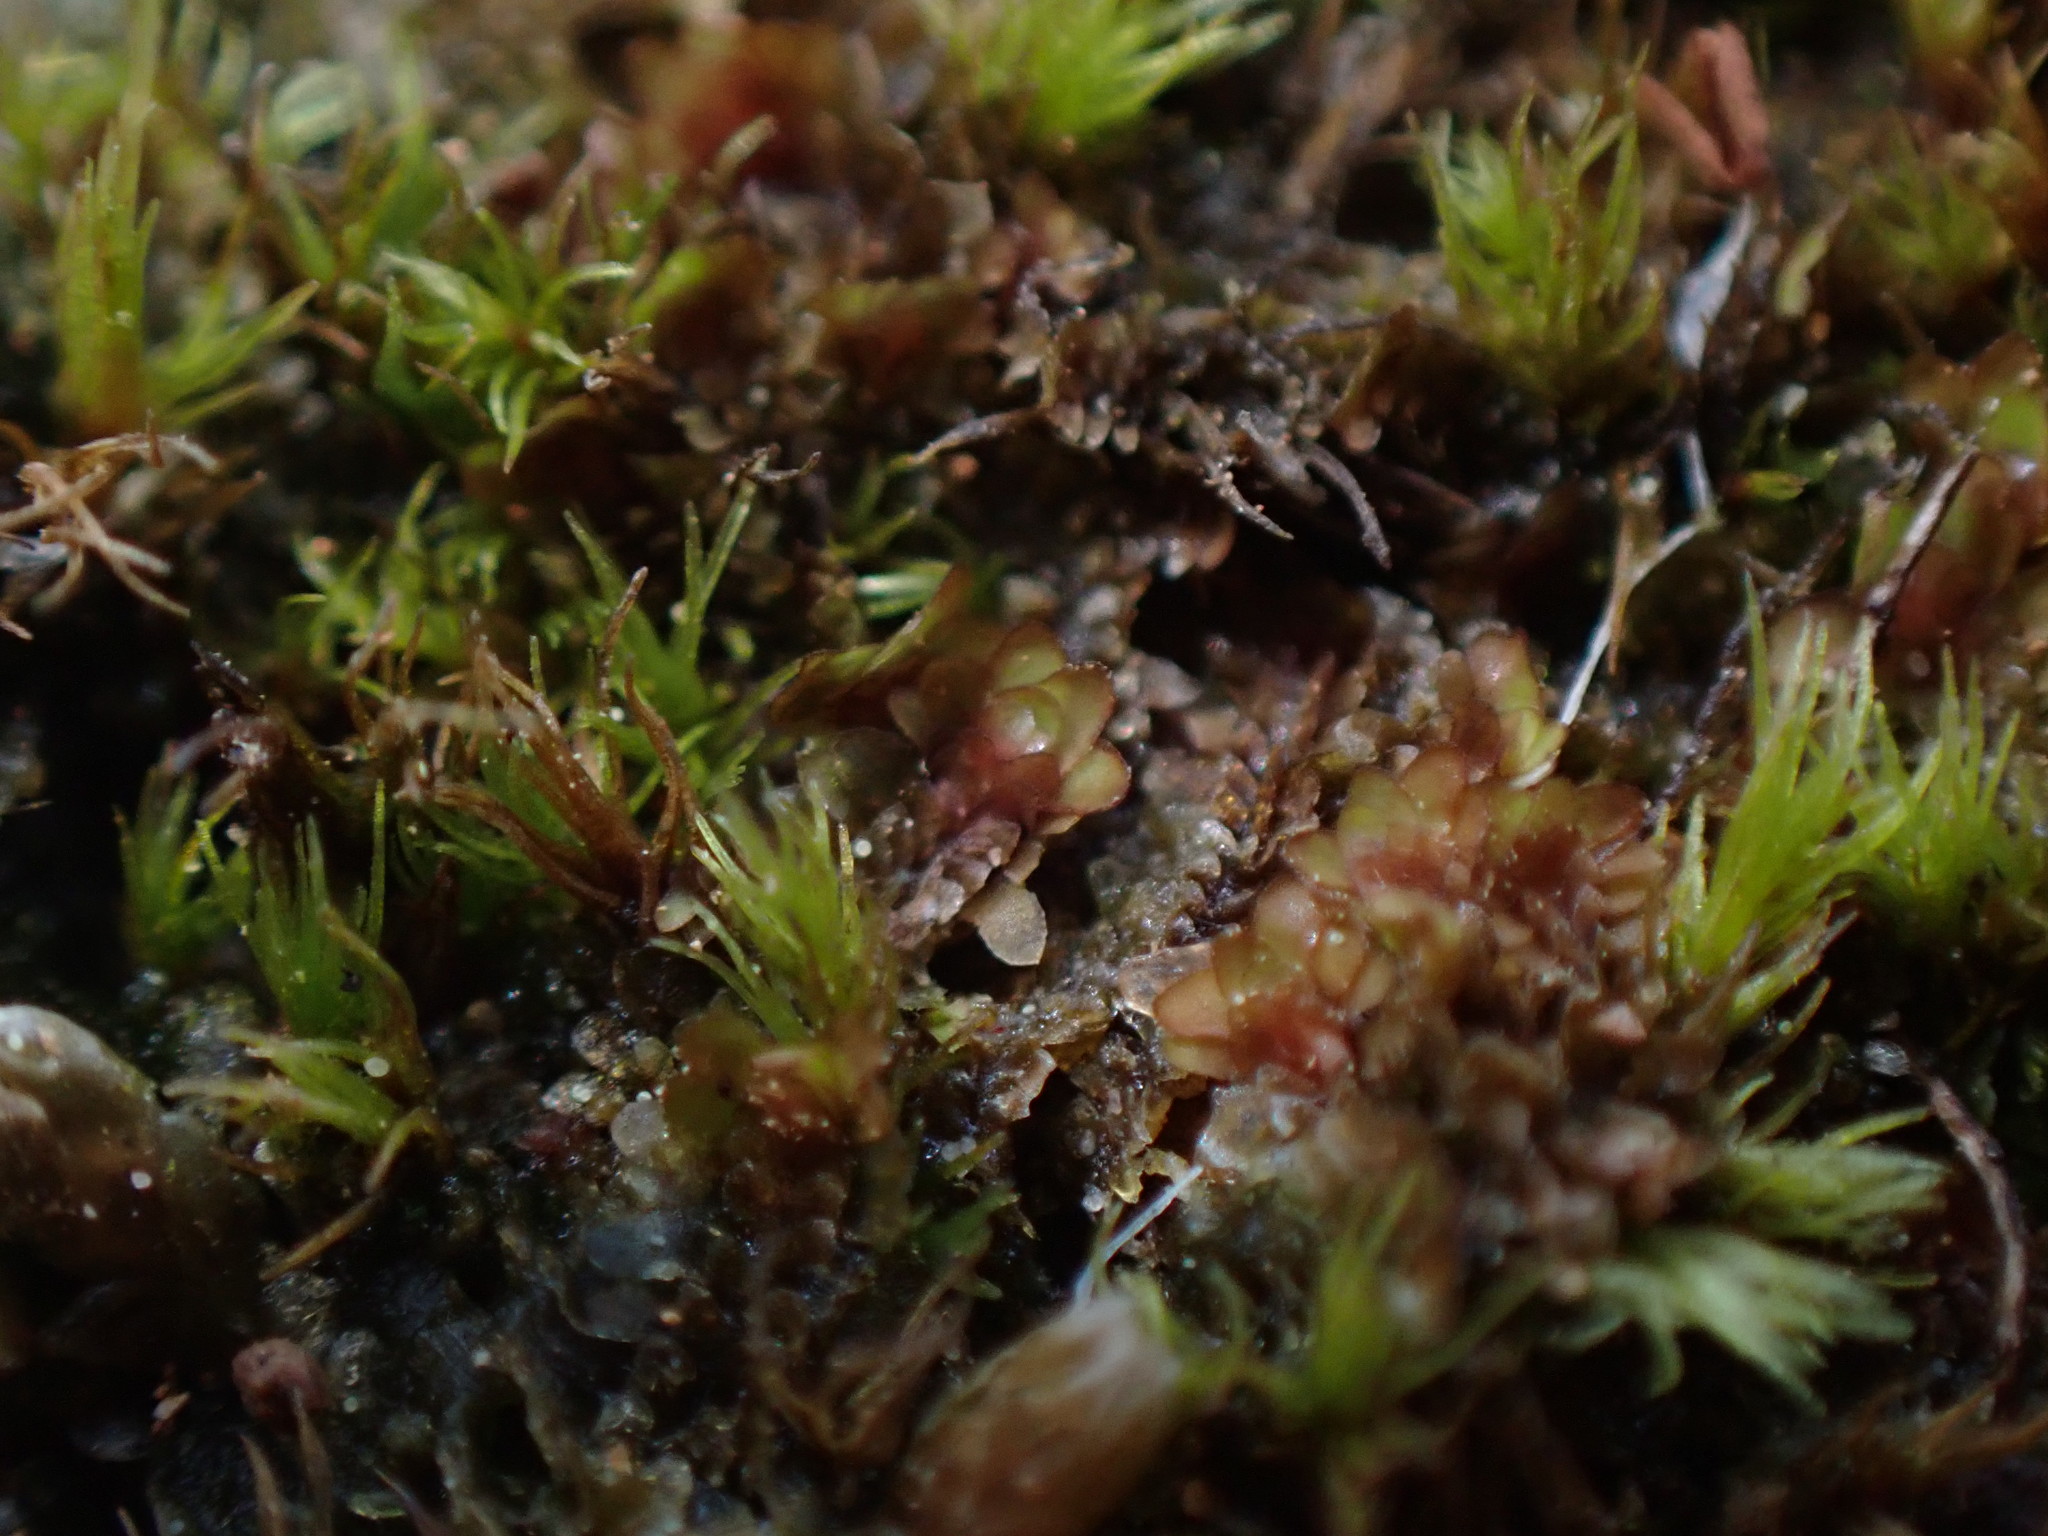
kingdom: Plantae
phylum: Marchantiophyta
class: Jungermanniopsida
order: Jungermanniales
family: Scapaniaceae
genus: Diplophyllum
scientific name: Diplophyllum obtusifolium
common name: Blunt-leaved earwort
